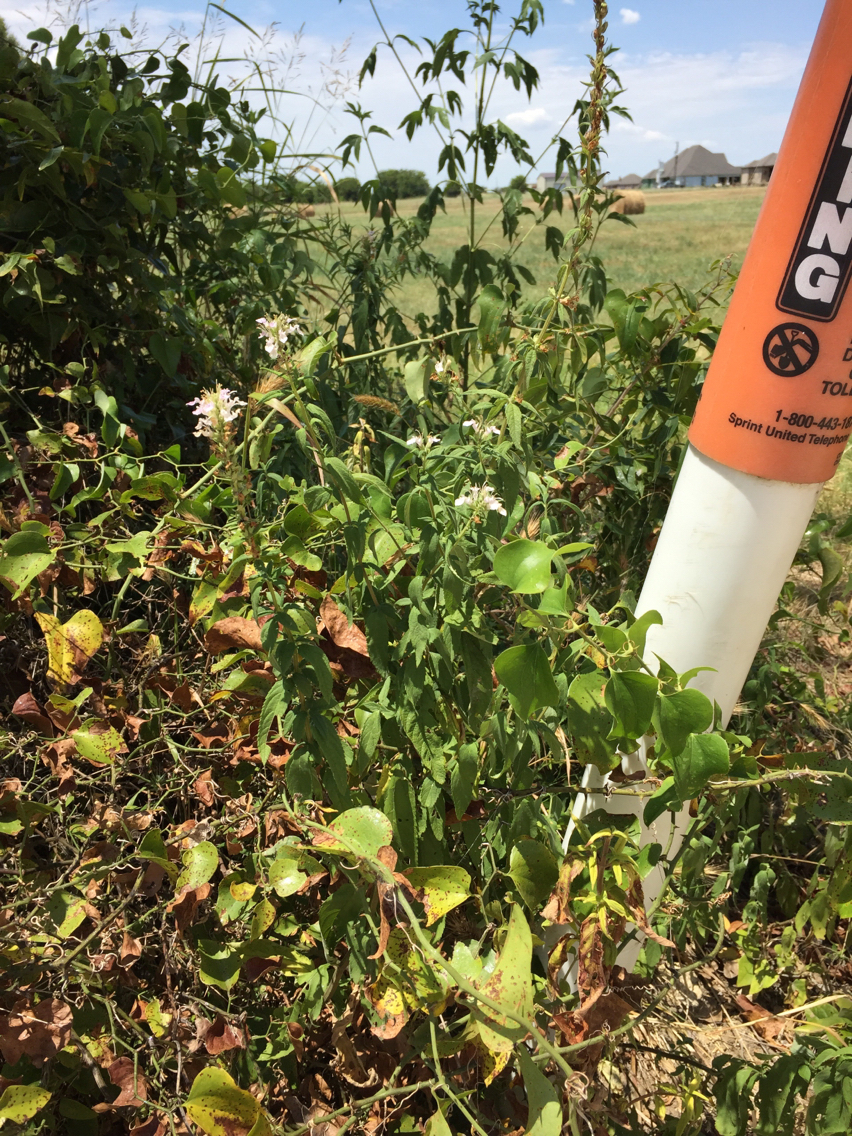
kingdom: Plantae
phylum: Tracheophyta
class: Magnoliopsida
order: Lamiales
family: Lamiaceae
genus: Teucrium
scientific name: Teucrium canadense
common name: American germander
